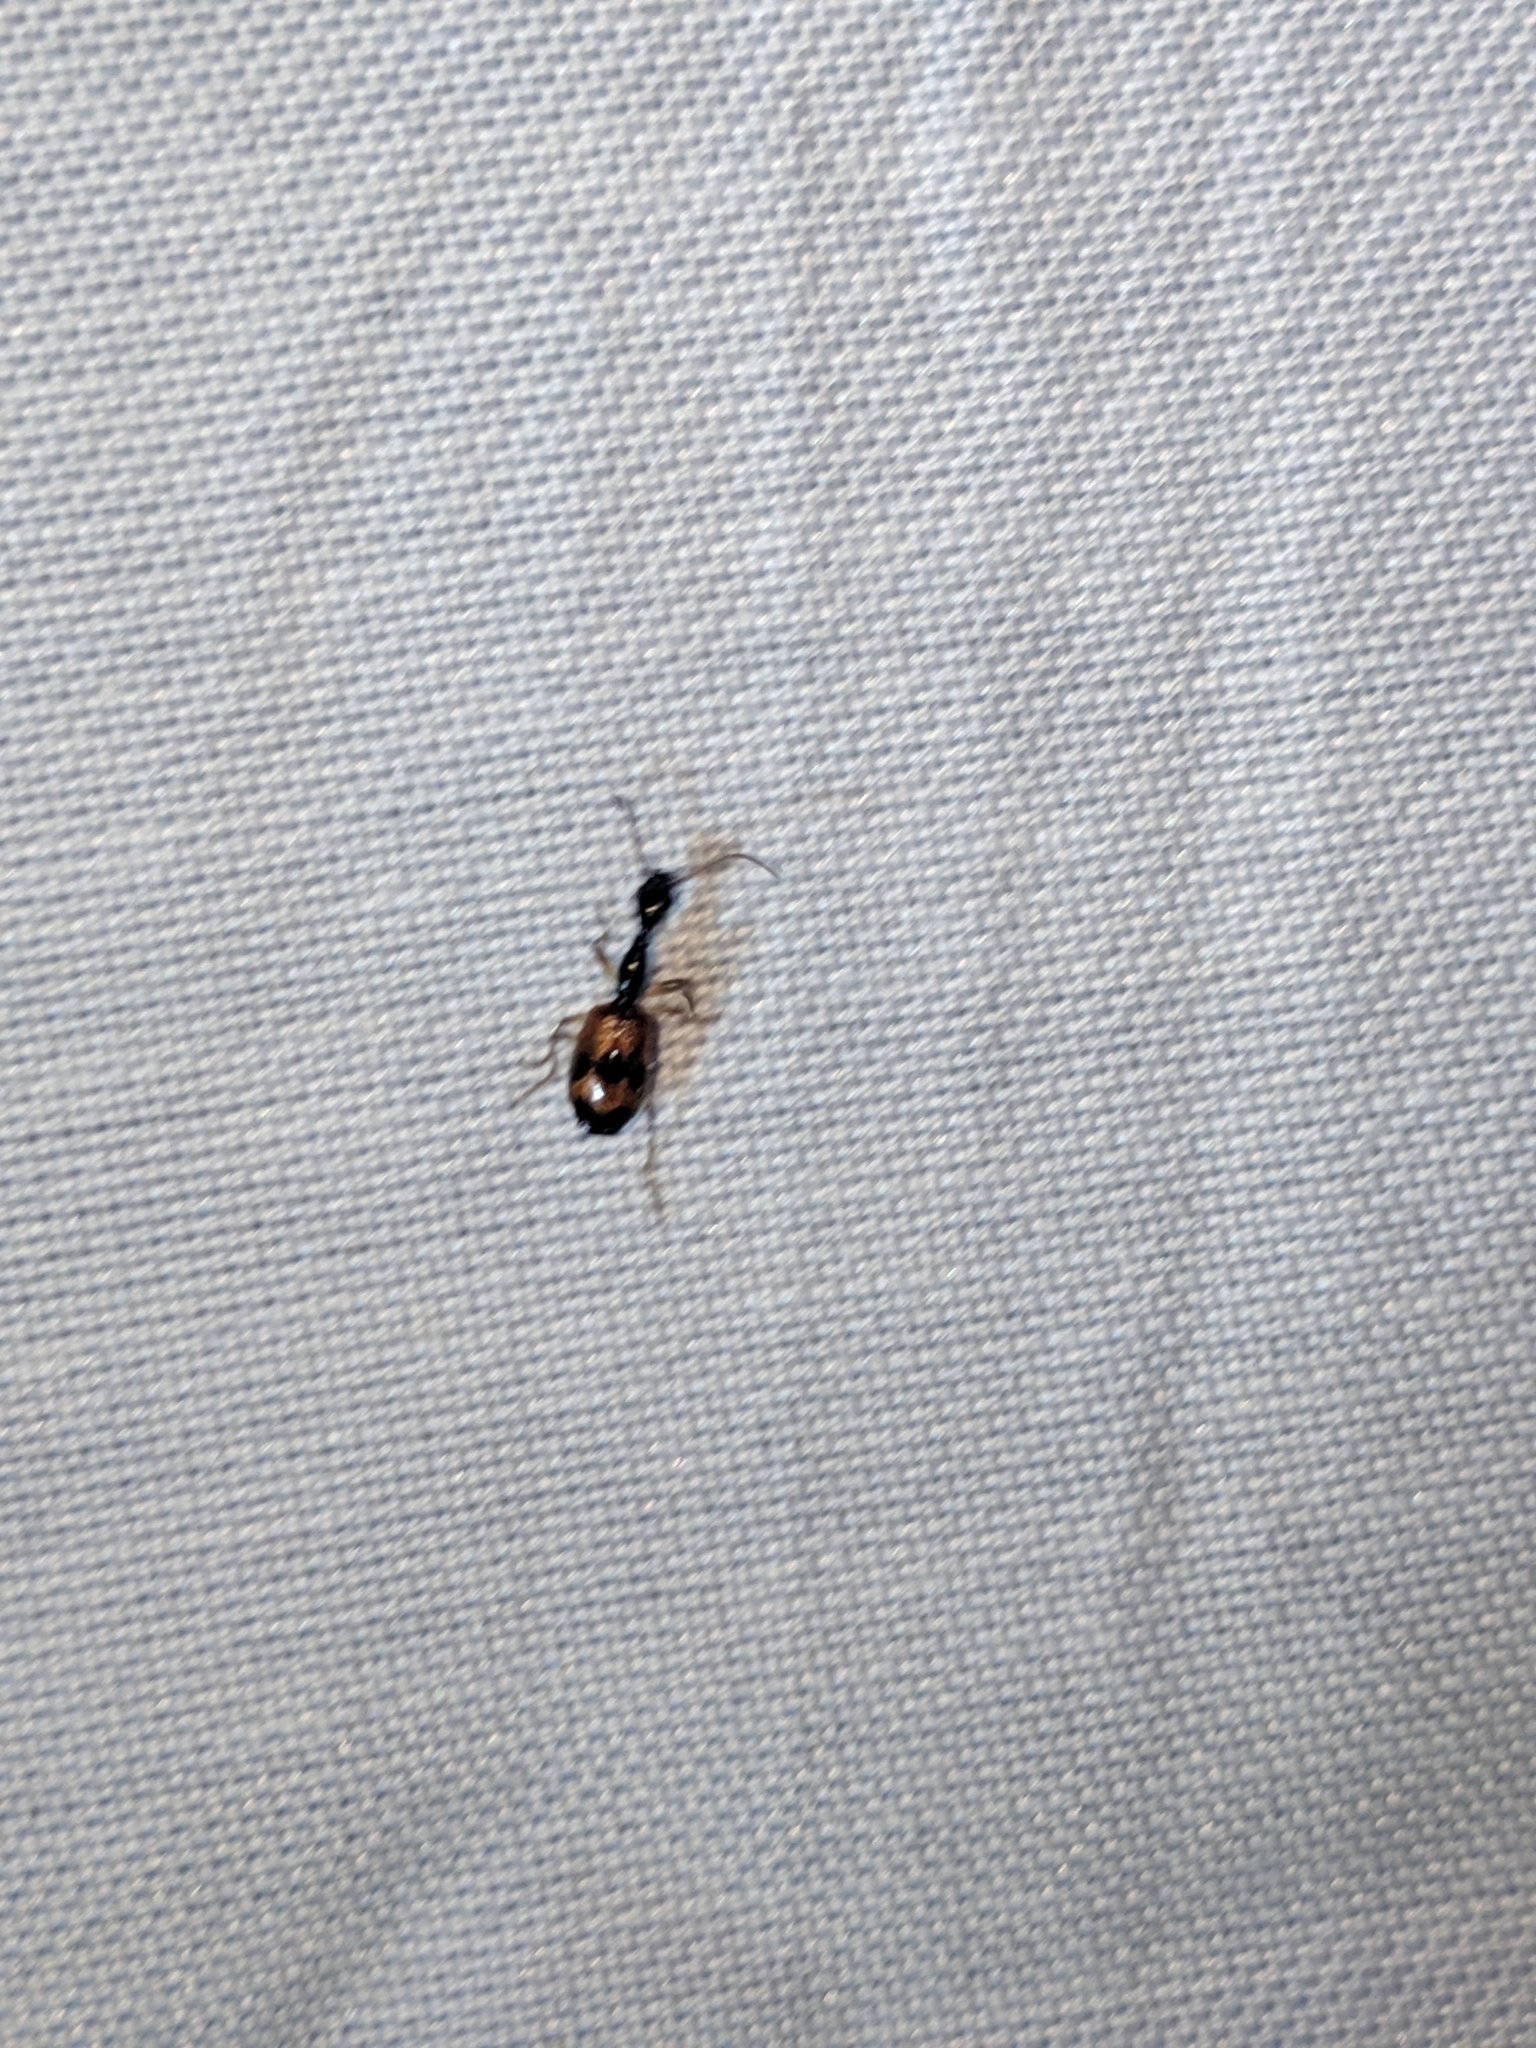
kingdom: Animalia
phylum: Arthropoda
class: Insecta
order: Coleoptera
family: Carabidae
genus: Colliuris
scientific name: Colliuris pensylvanica
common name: Long-necked ground beetle
